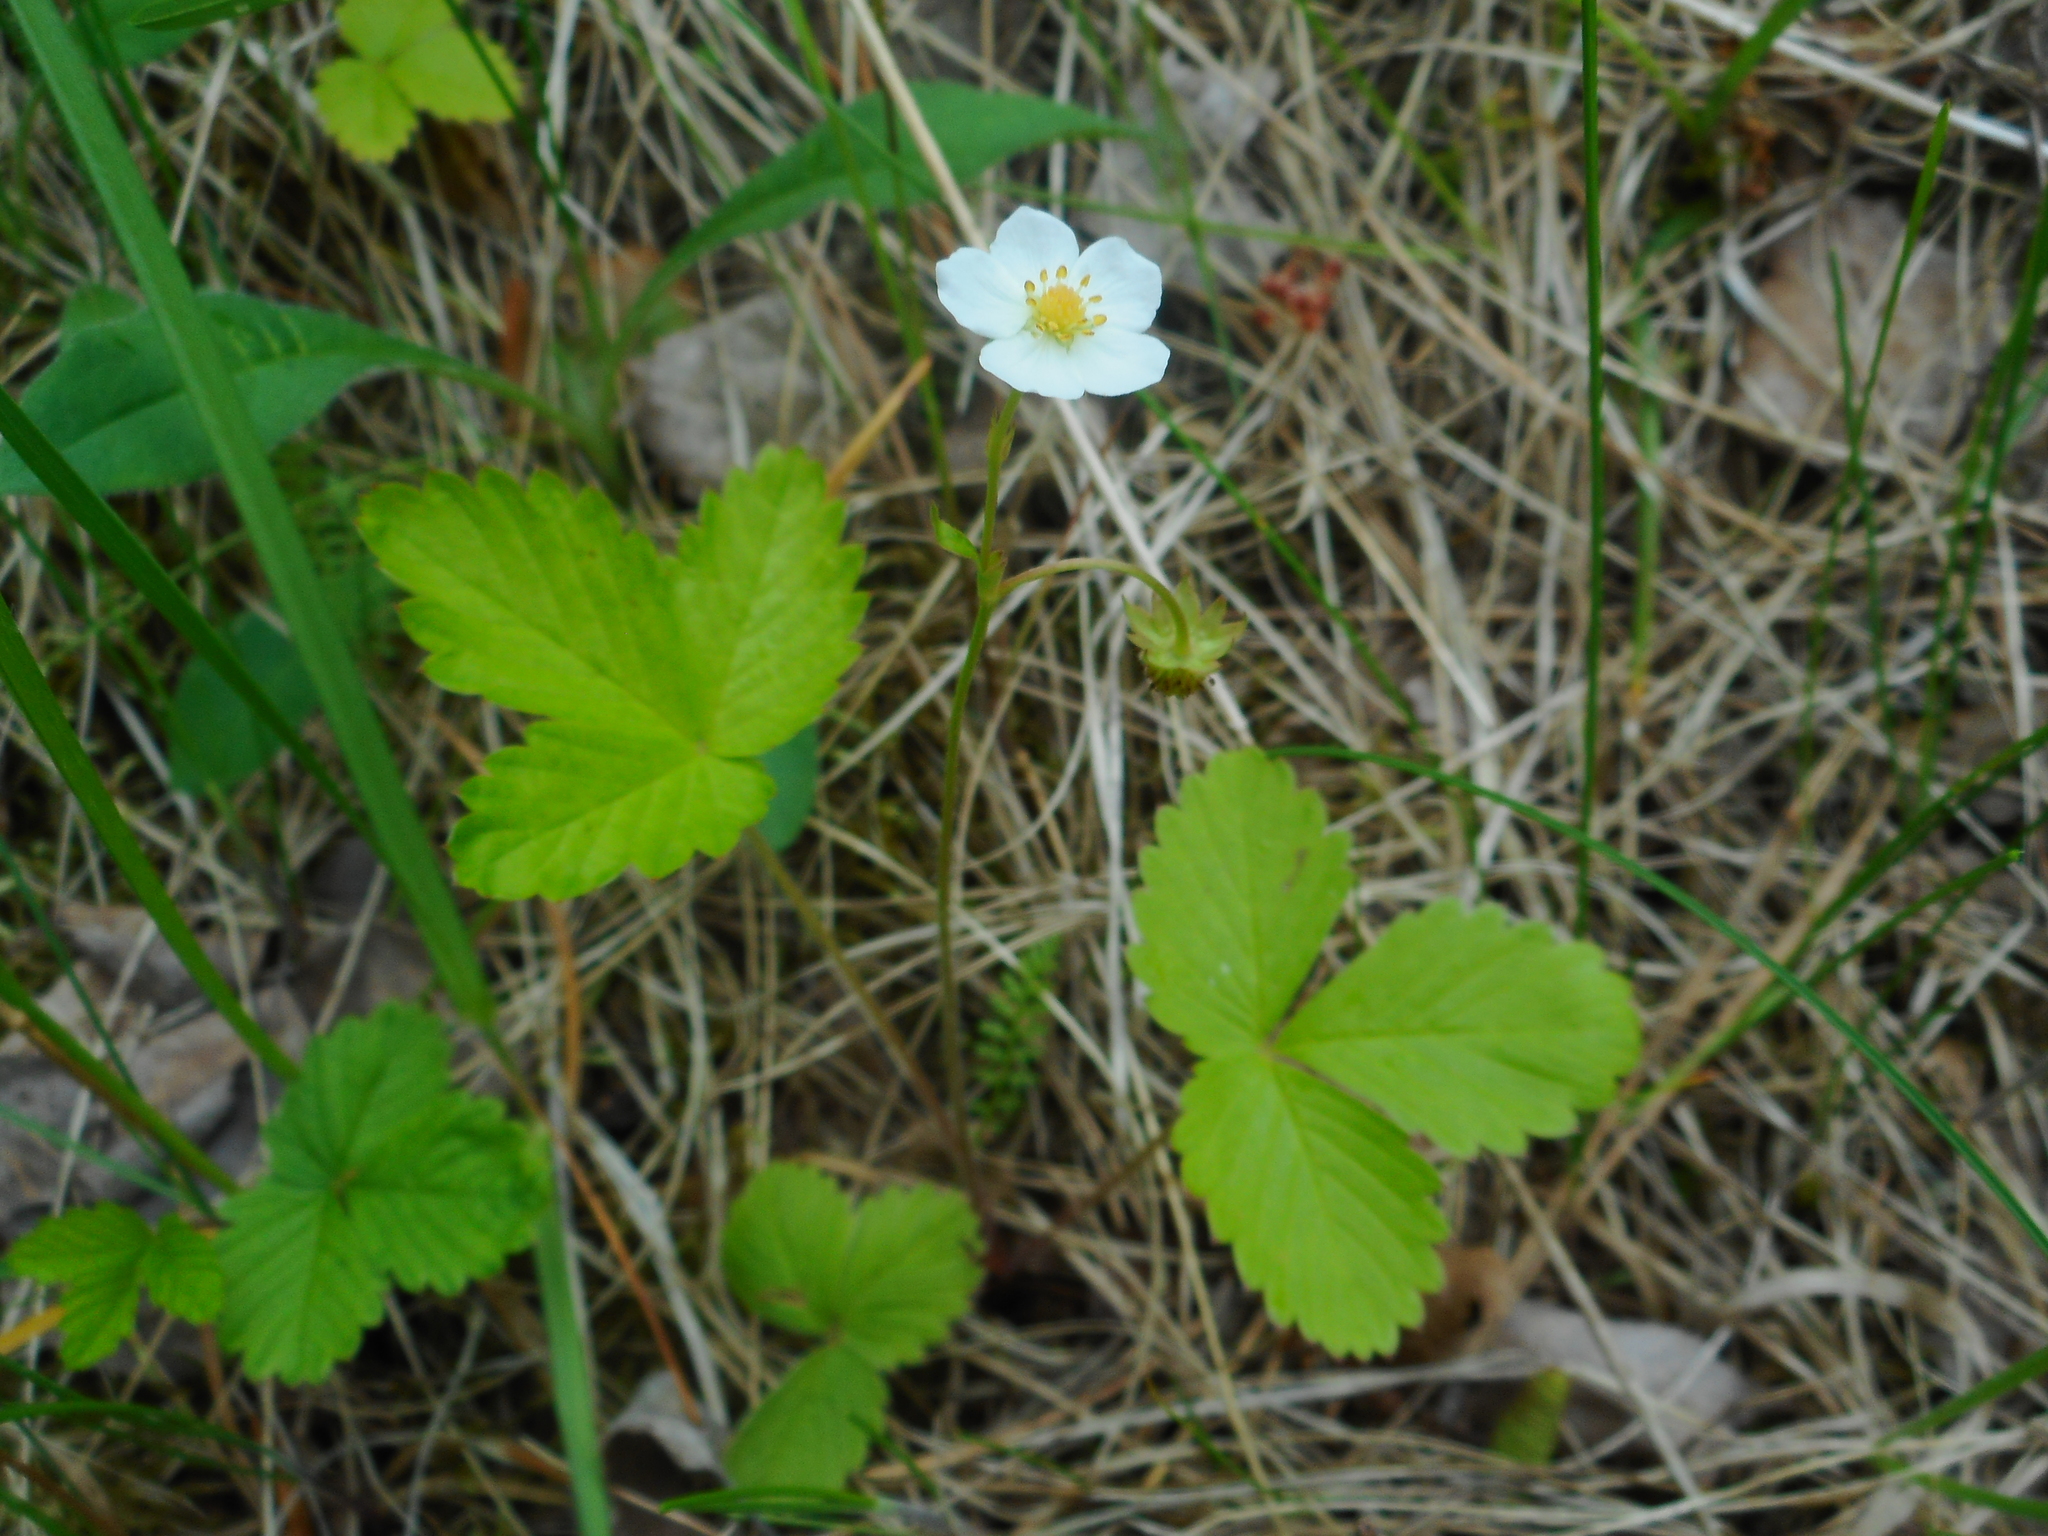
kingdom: Plantae
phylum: Tracheophyta
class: Magnoliopsida
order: Rosales
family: Rosaceae
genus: Fragaria
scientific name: Fragaria vesca
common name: Wild strawberry
